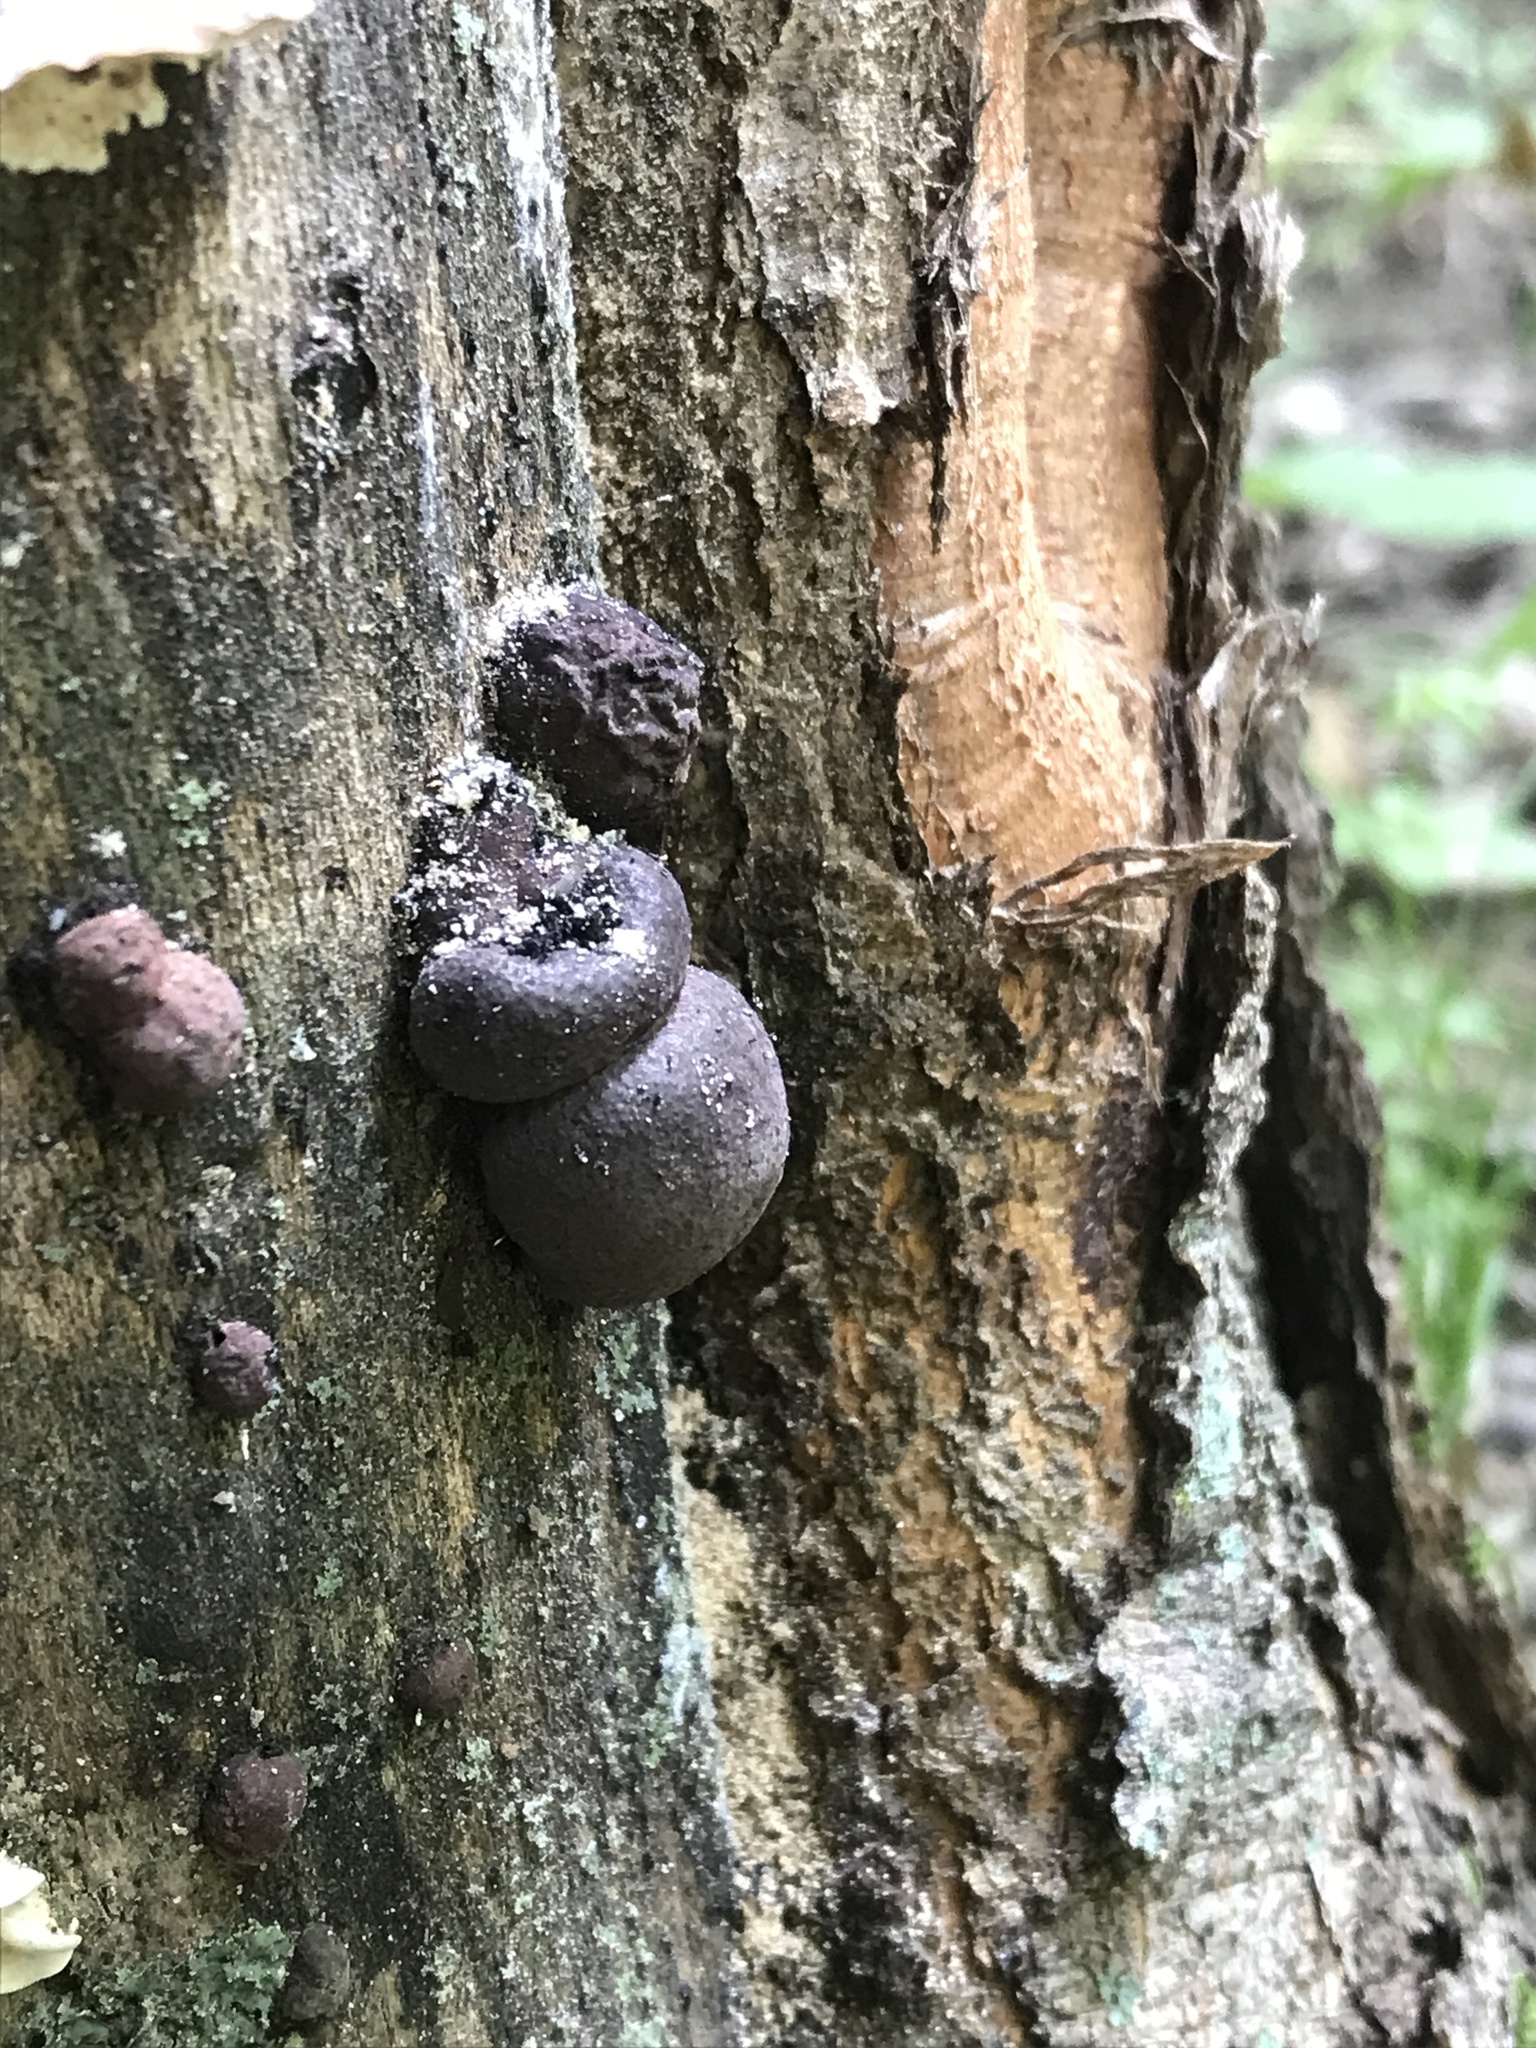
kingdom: Fungi
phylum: Ascomycota
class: Sordariomycetes
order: Xylariales
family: Hypoxylaceae
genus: Daldinia
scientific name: Daldinia childiae
